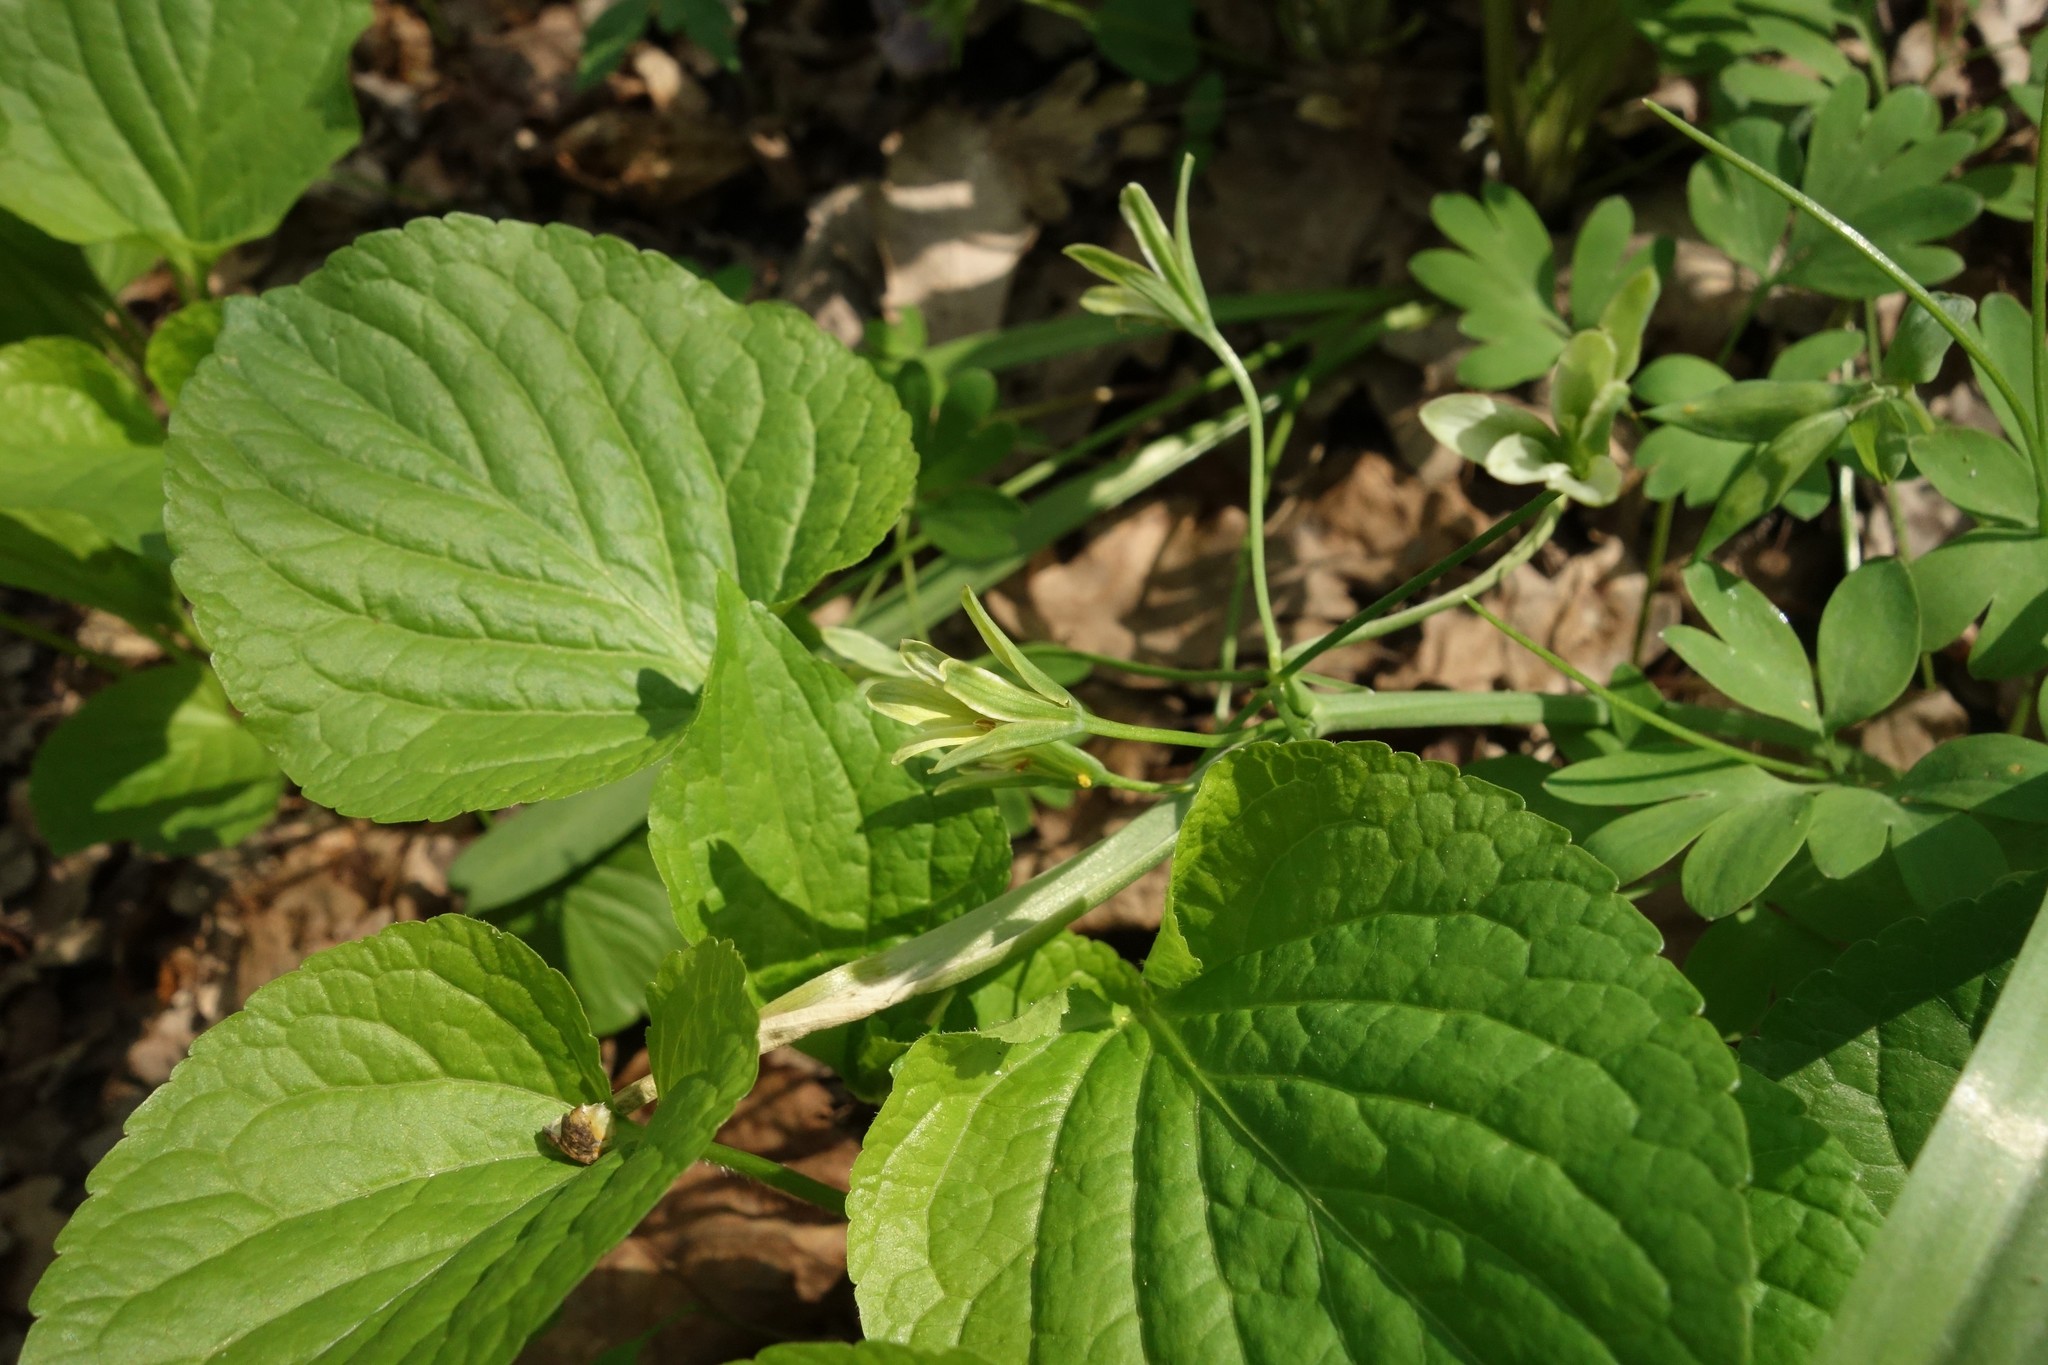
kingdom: Plantae
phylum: Tracheophyta
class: Liliopsida
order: Liliales
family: Liliaceae
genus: Gagea
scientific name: Gagea lutea
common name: Yellow star-of-bethlehem
